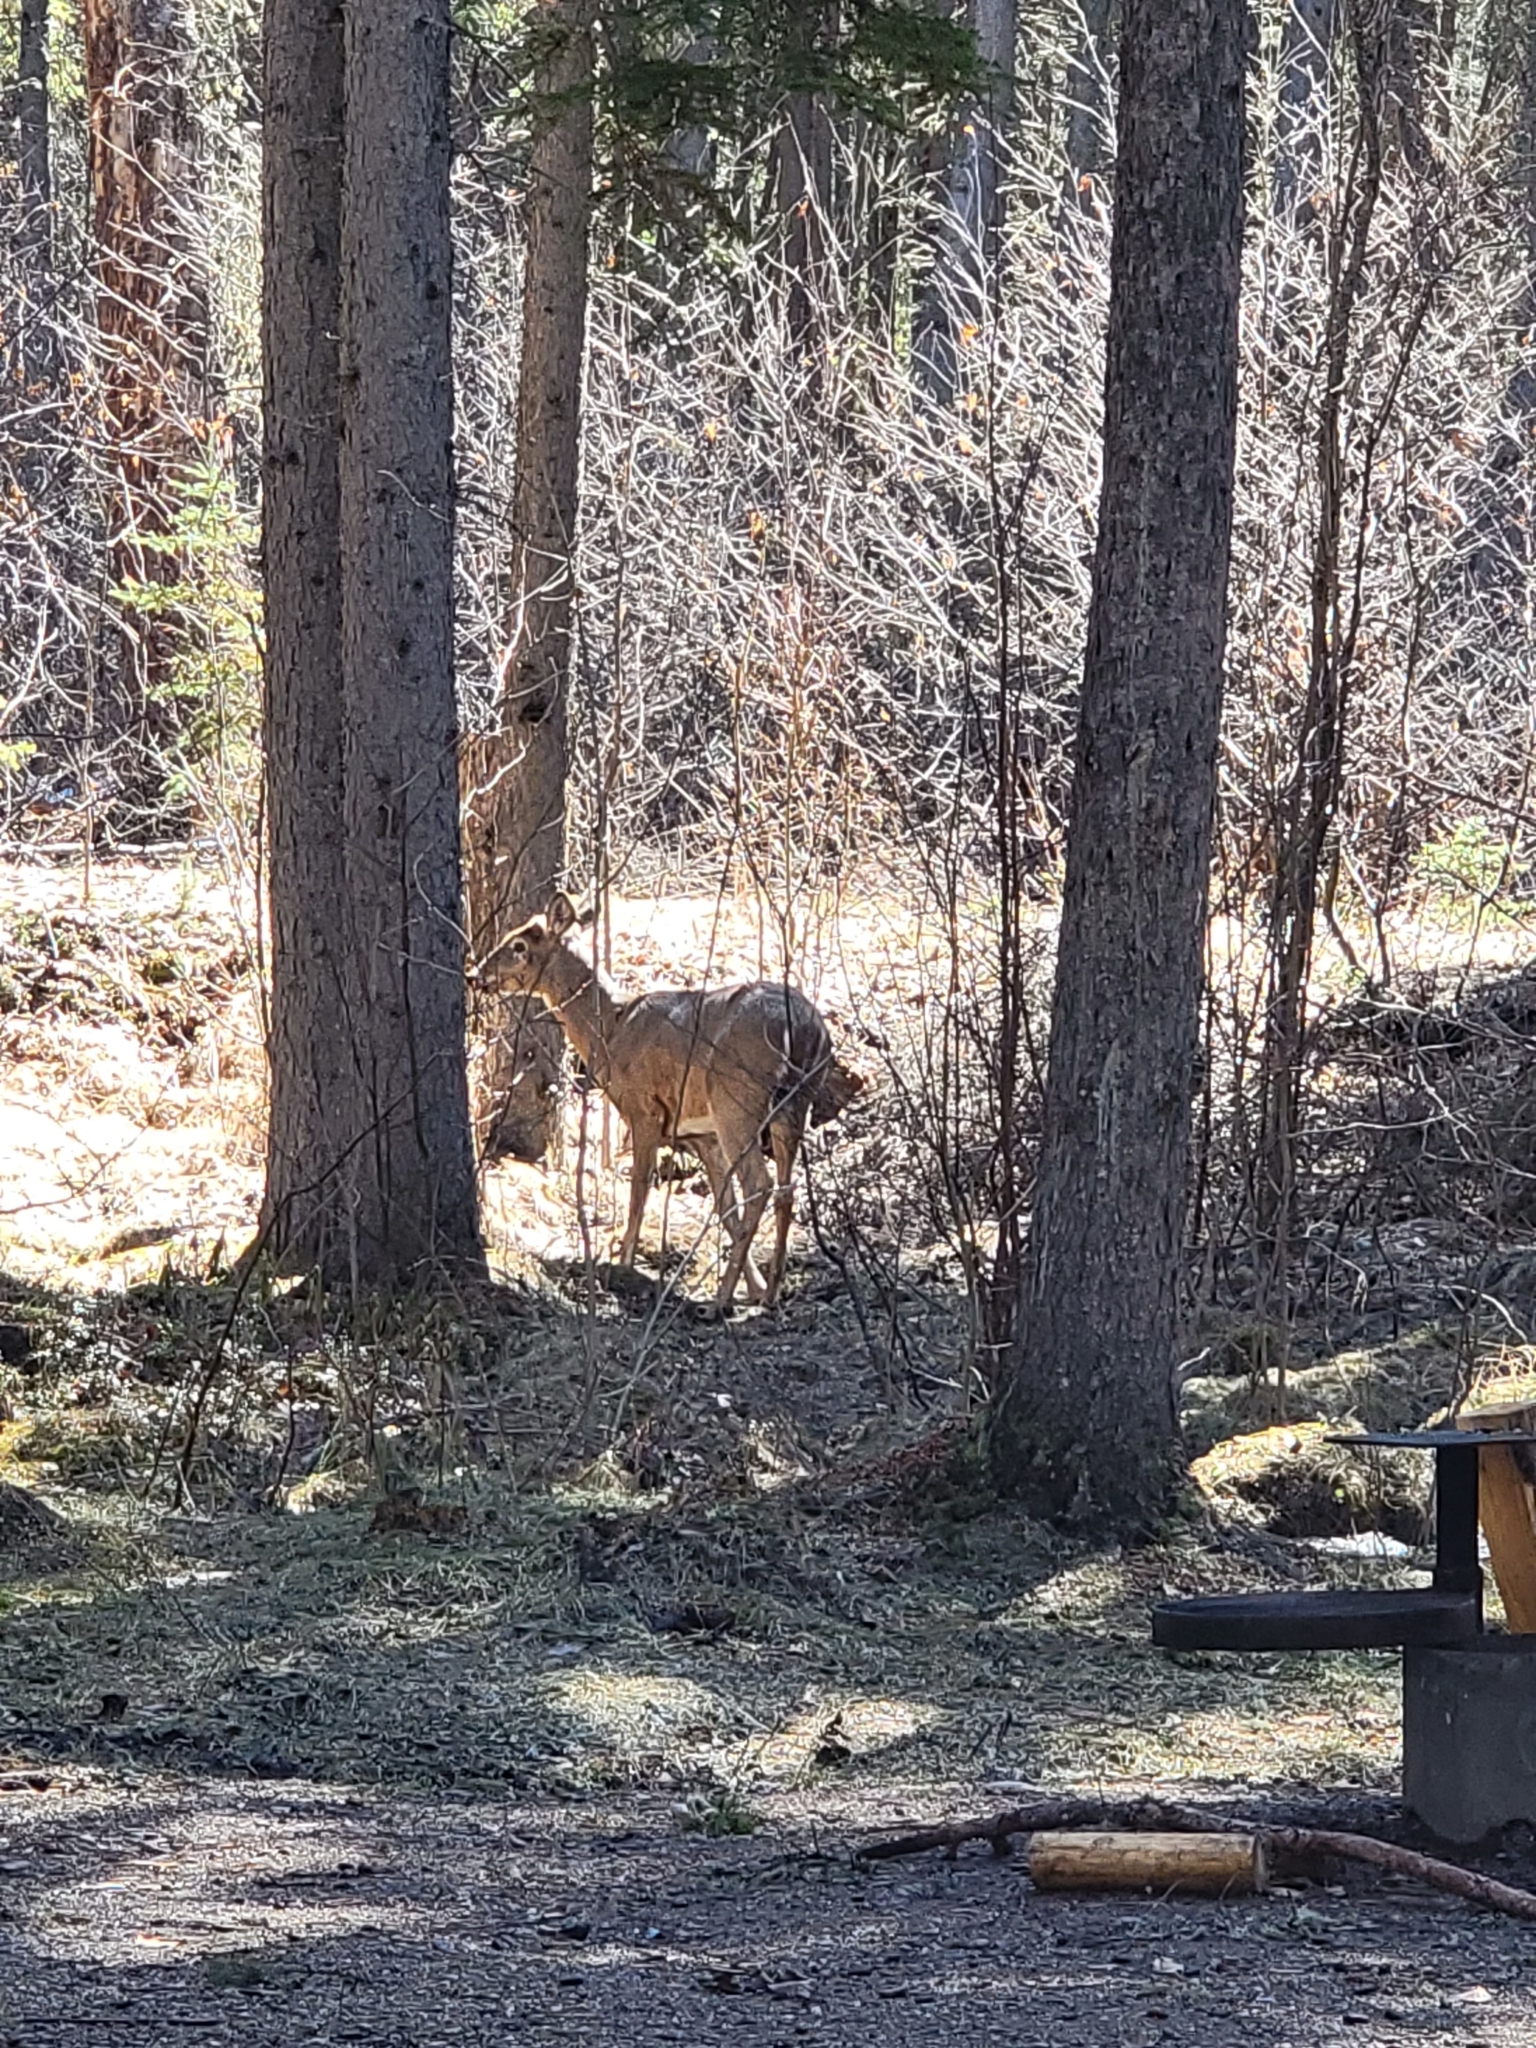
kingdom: Animalia
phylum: Chordata
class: Mammalia
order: Artiodactyla
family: Cervidae
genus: Odocoileus
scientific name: Odocoileus virginianus
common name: White-tailed deer
